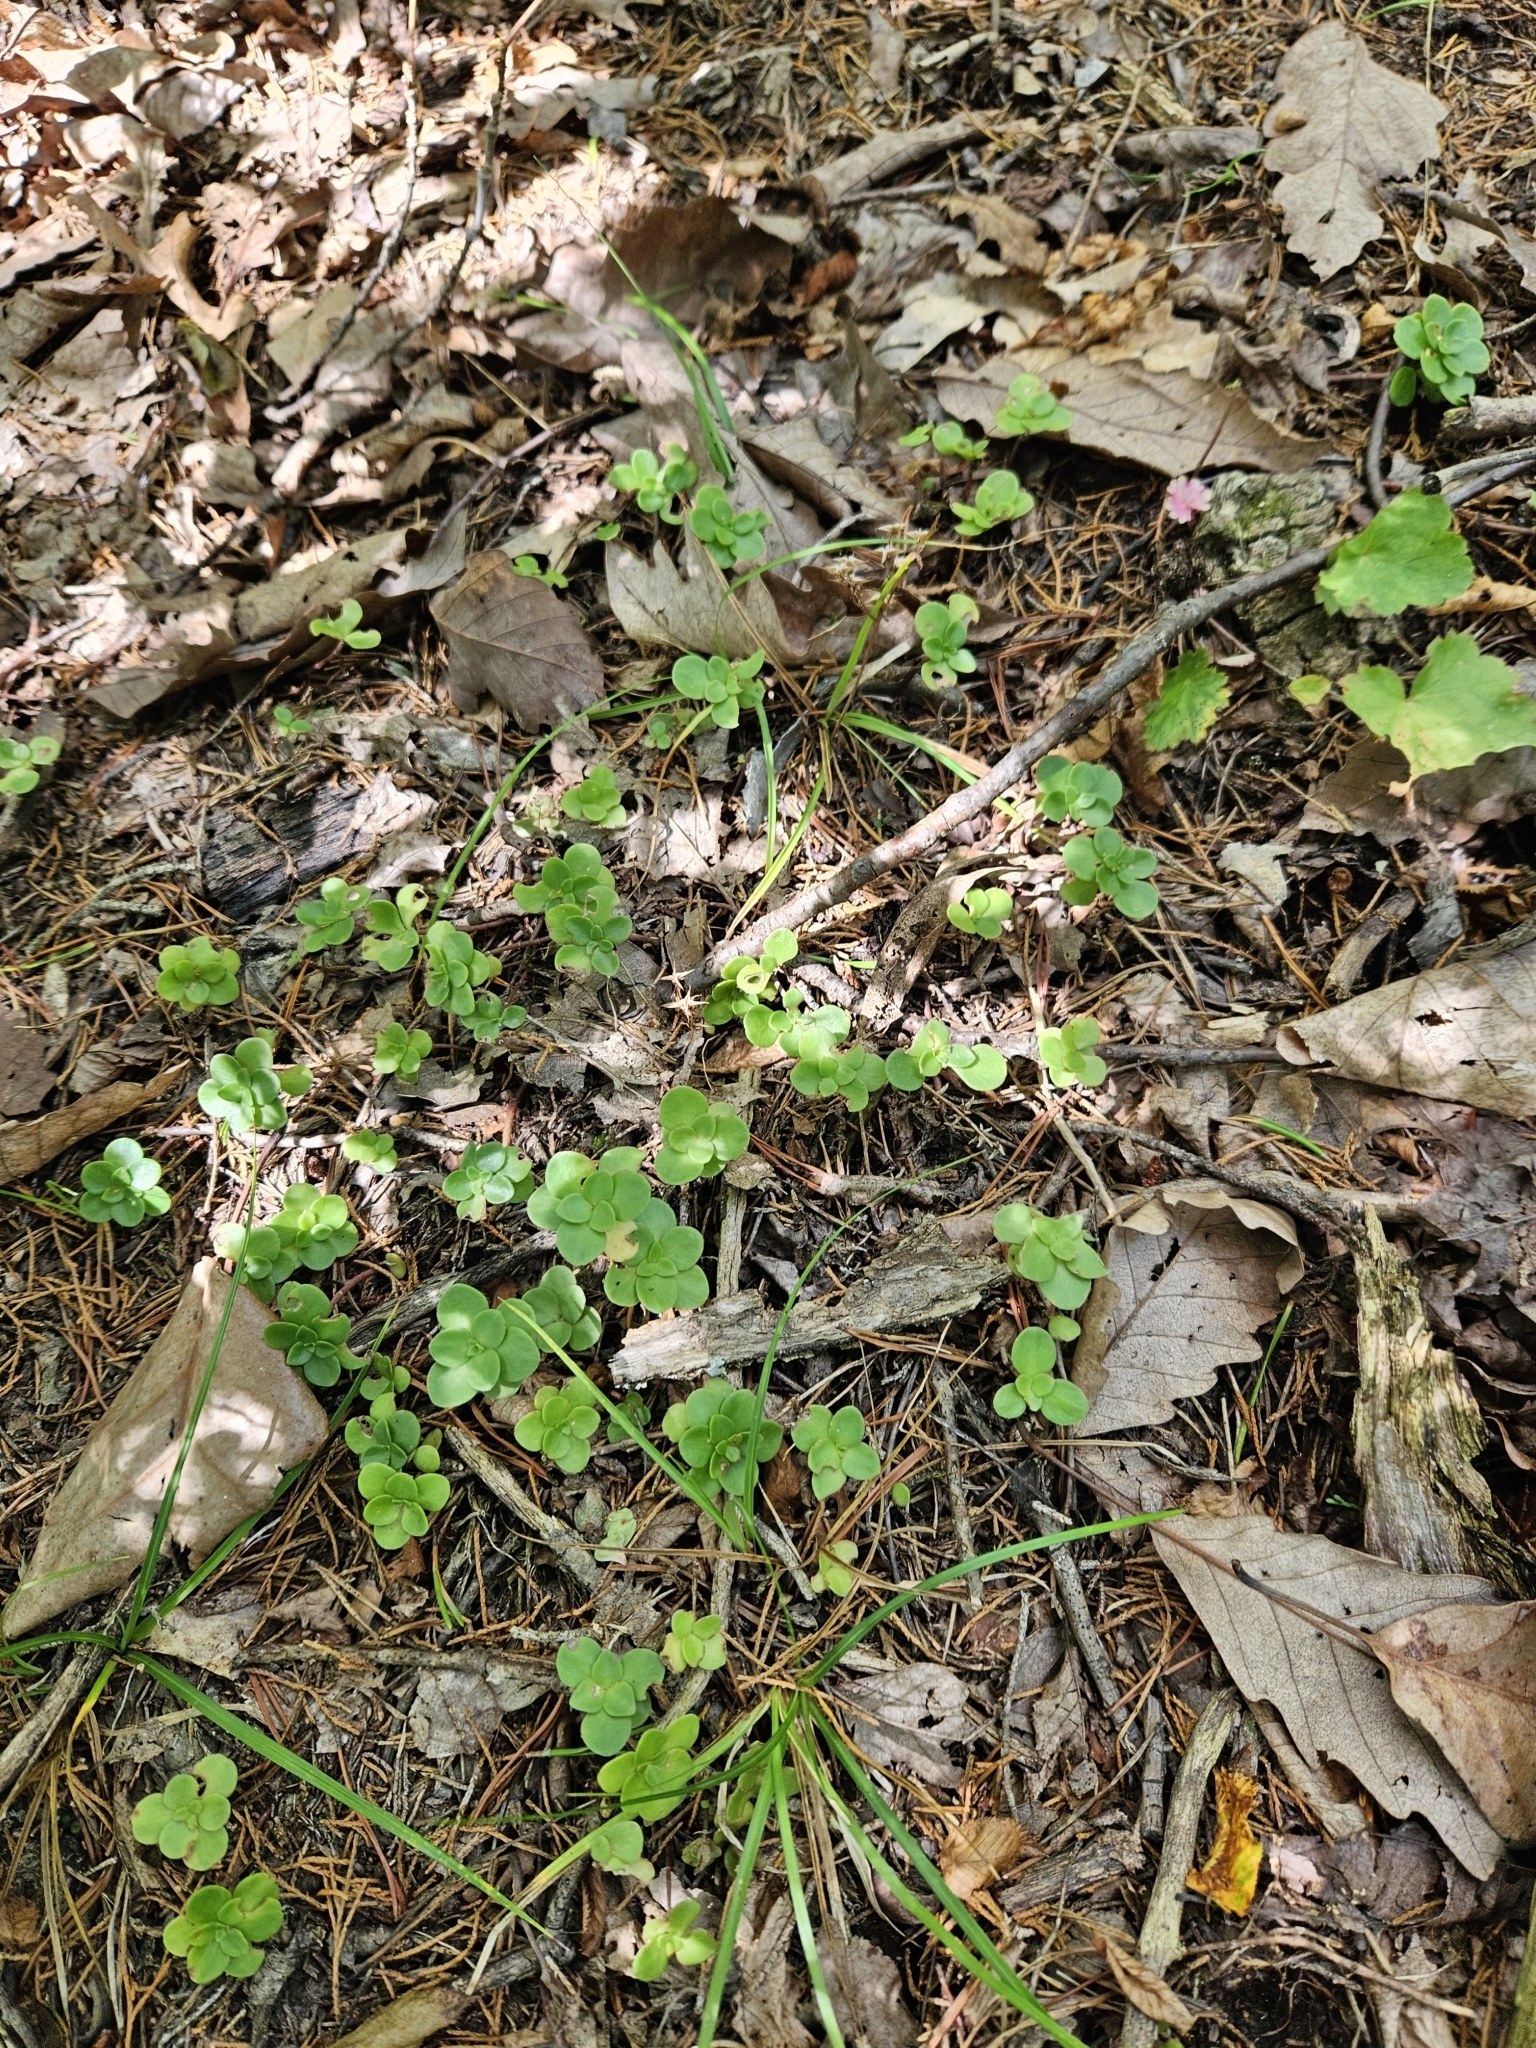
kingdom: Plantae
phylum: Tracheophyta
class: Magnoliopsida
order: Saxifragales
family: Crassulaceae
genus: Sedum
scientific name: Sedum ternatum
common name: Wild stonecrop
